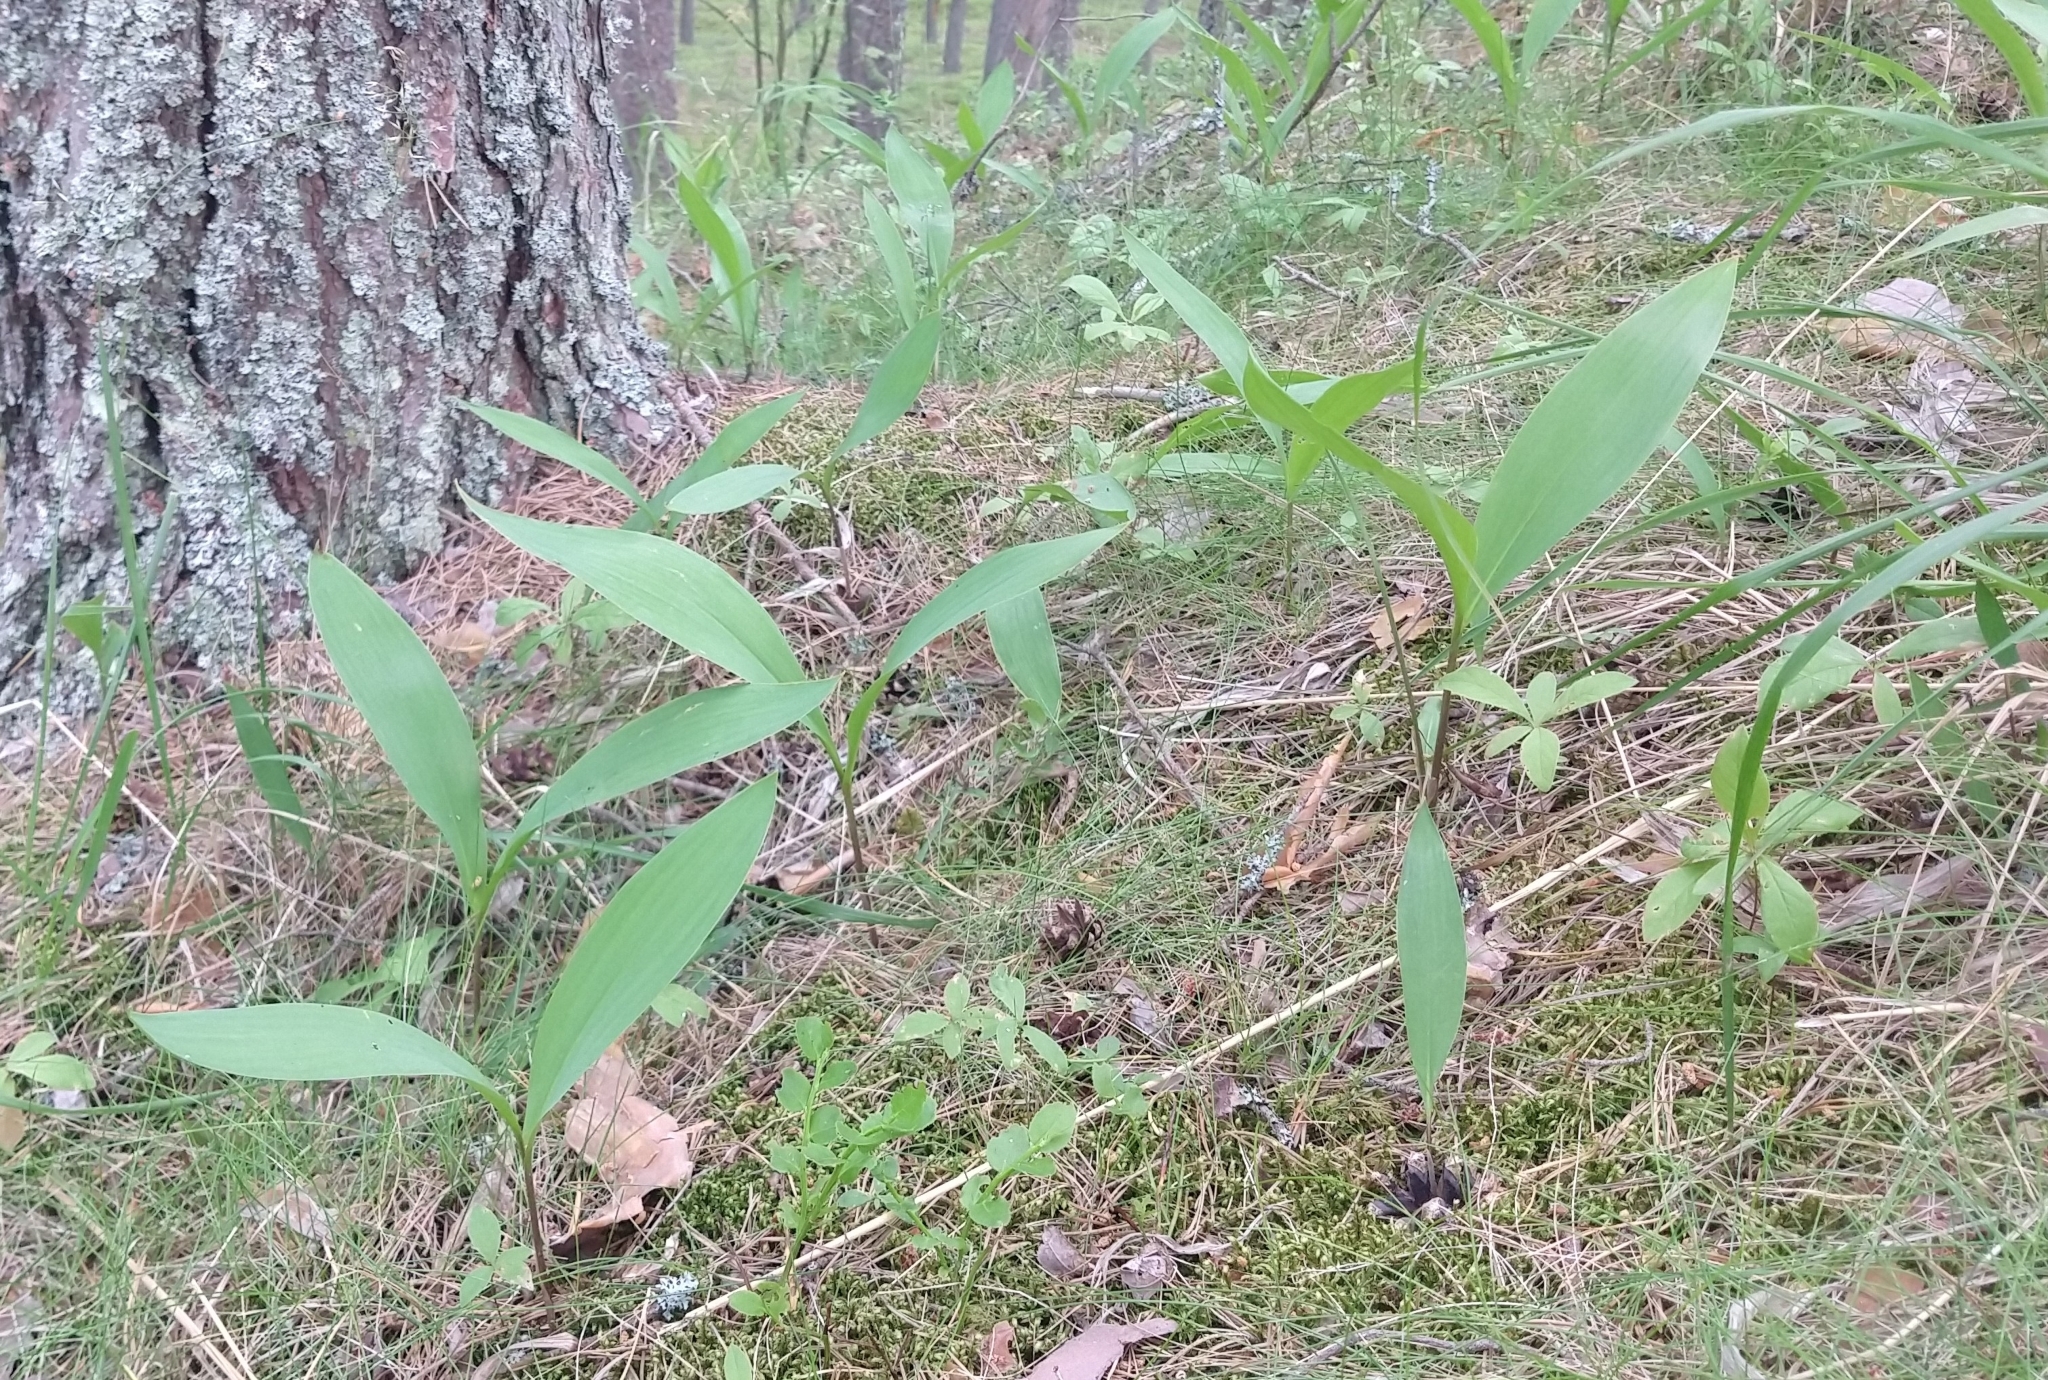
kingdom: Plantae
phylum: Tracheophyta
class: Liliopsida
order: Asparagales
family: Asparagaceae
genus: Convallaria
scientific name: Convallaria majalis
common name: Lily-of-the-valley
